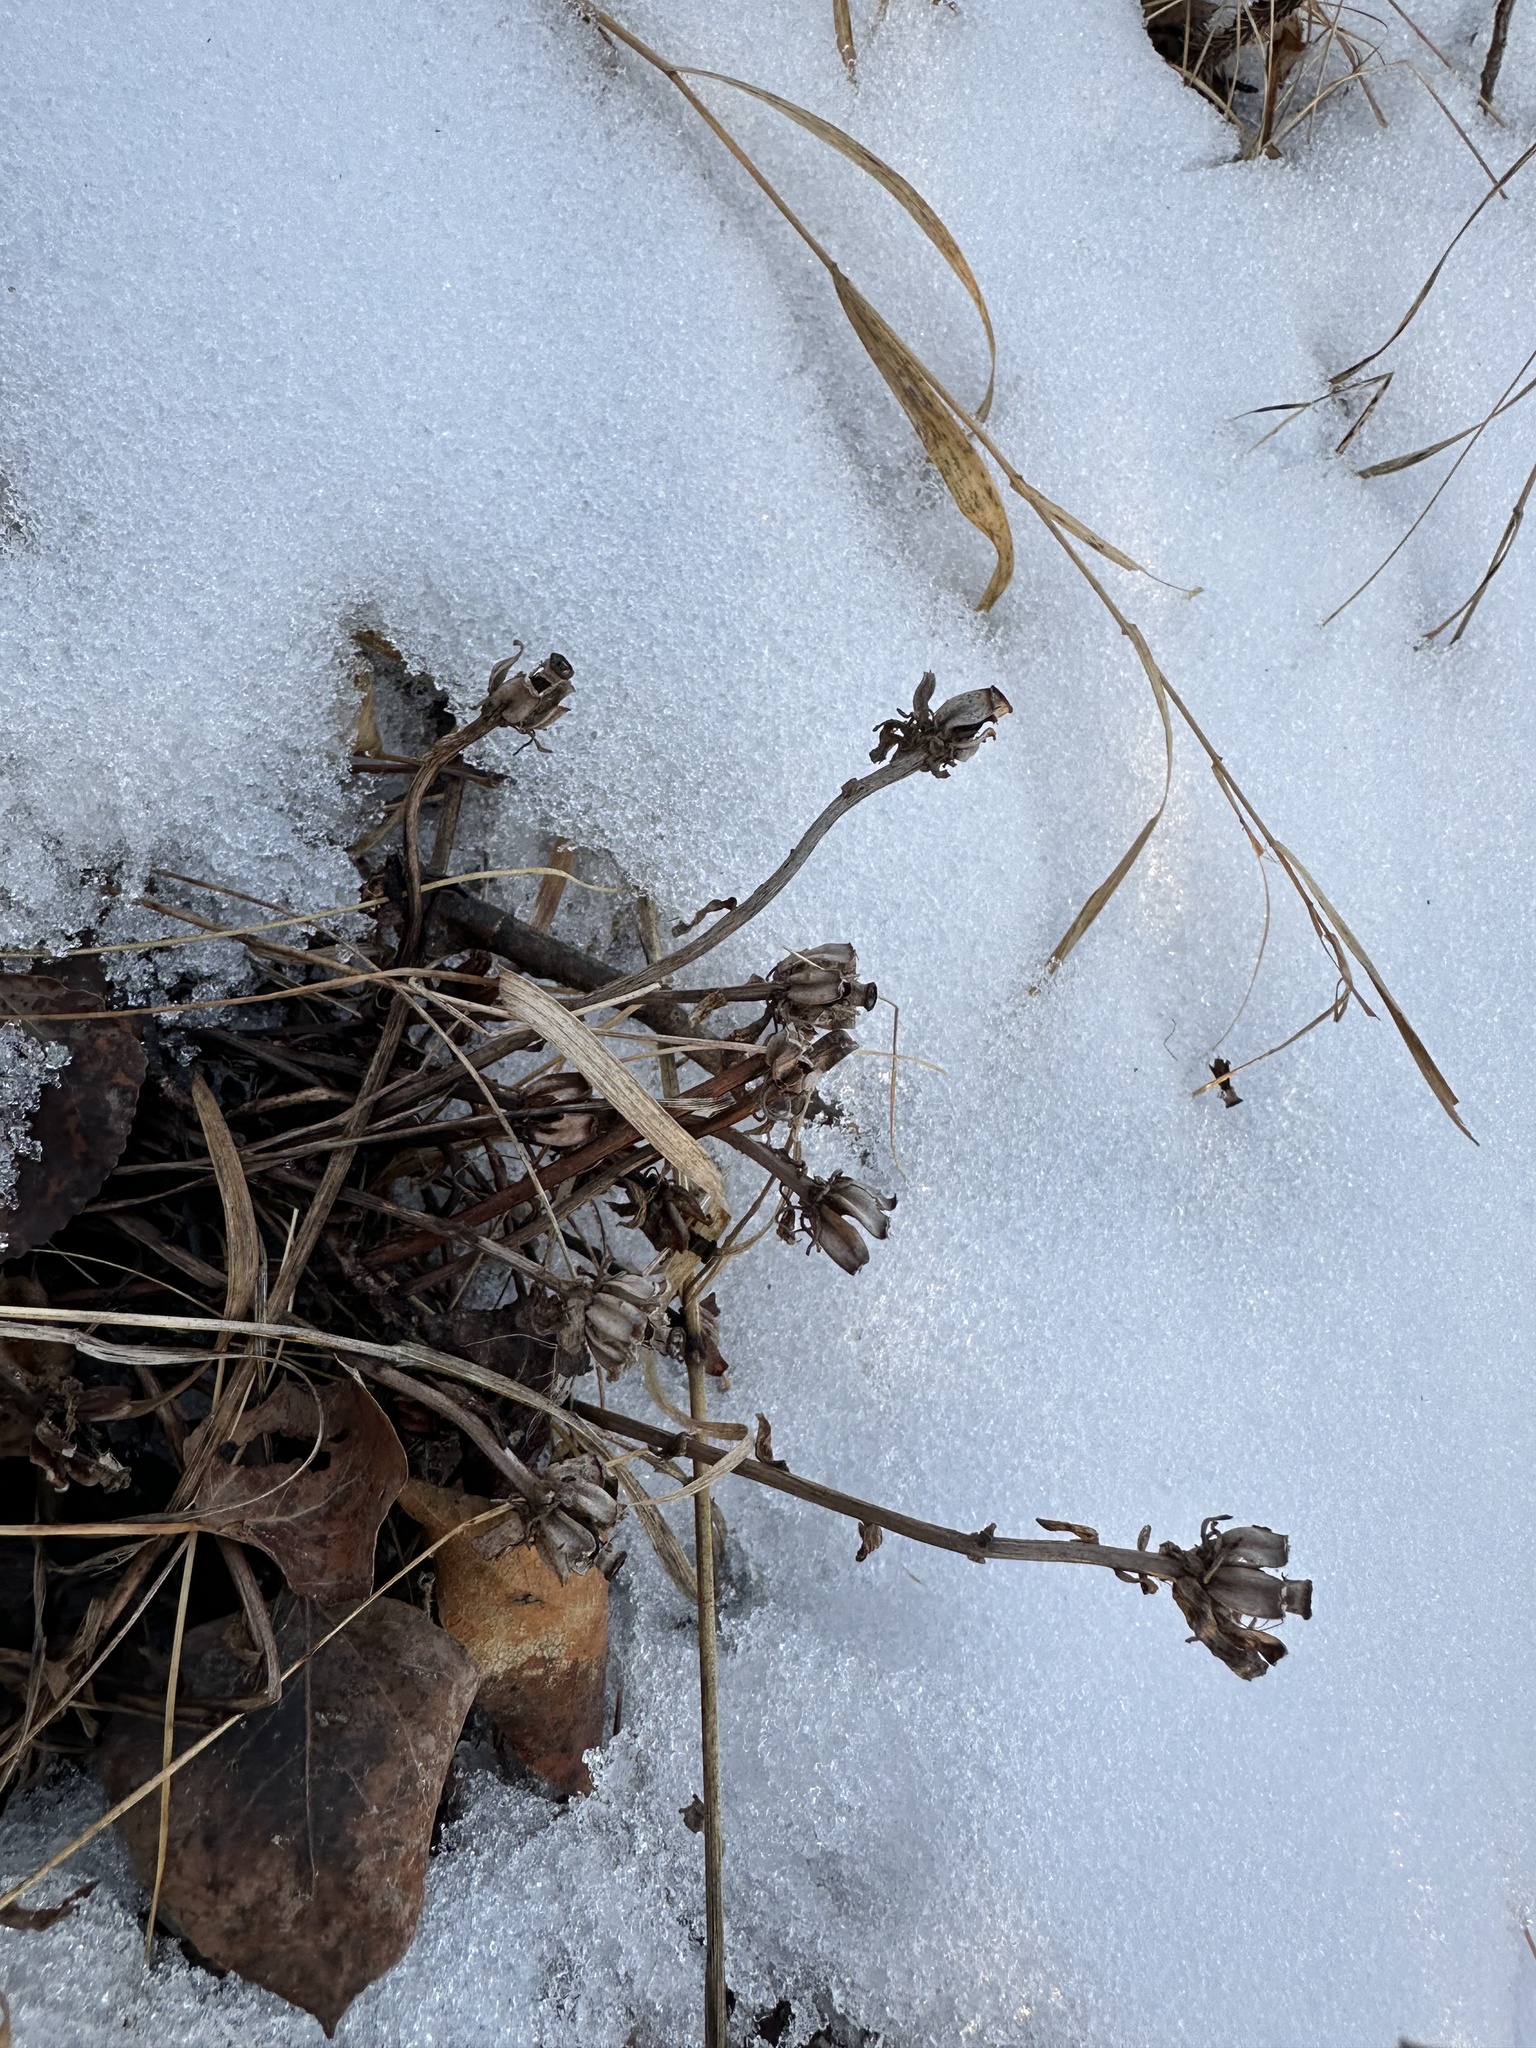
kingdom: Plantae
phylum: Tracheophyta
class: Magnoliopsida
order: Ericales
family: Ericaceae
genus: Monotropa
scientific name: Monotropa uniflora
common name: Convulsion root
